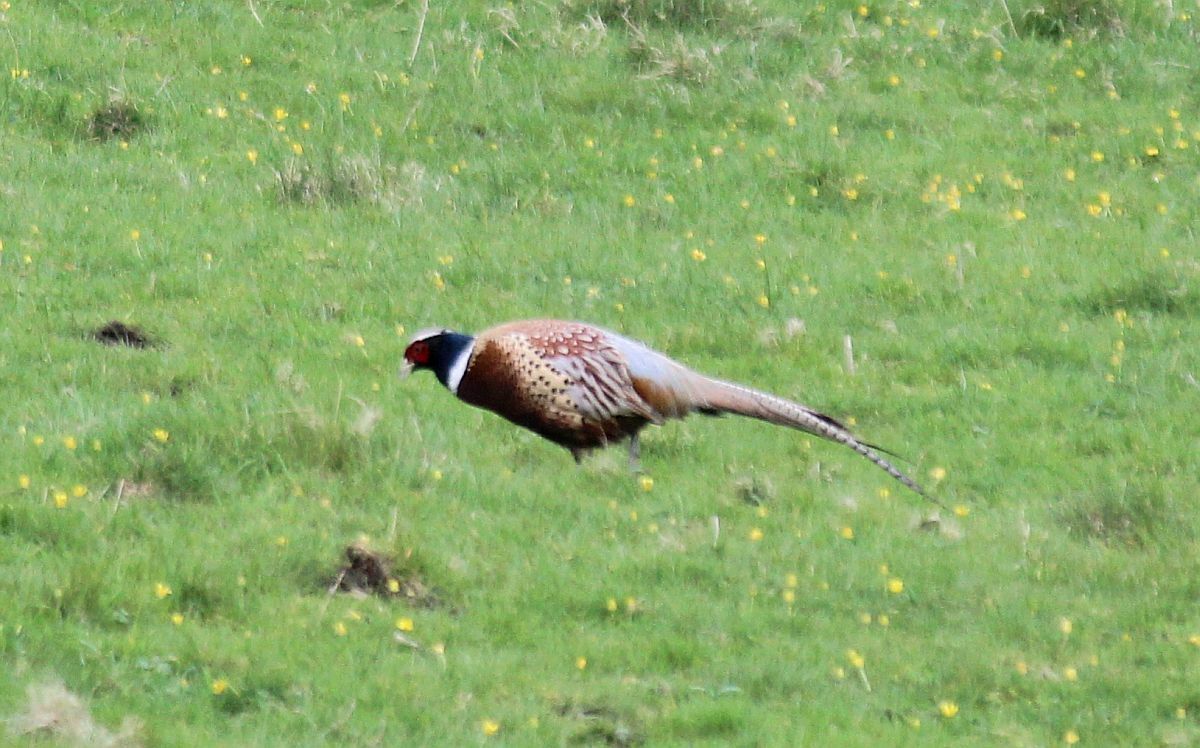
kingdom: Animalia
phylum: Chordata
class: Aves
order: Galliformes
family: Phasianidae
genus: Phasianus
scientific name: Phasianus colchicus
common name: Common pheasant
